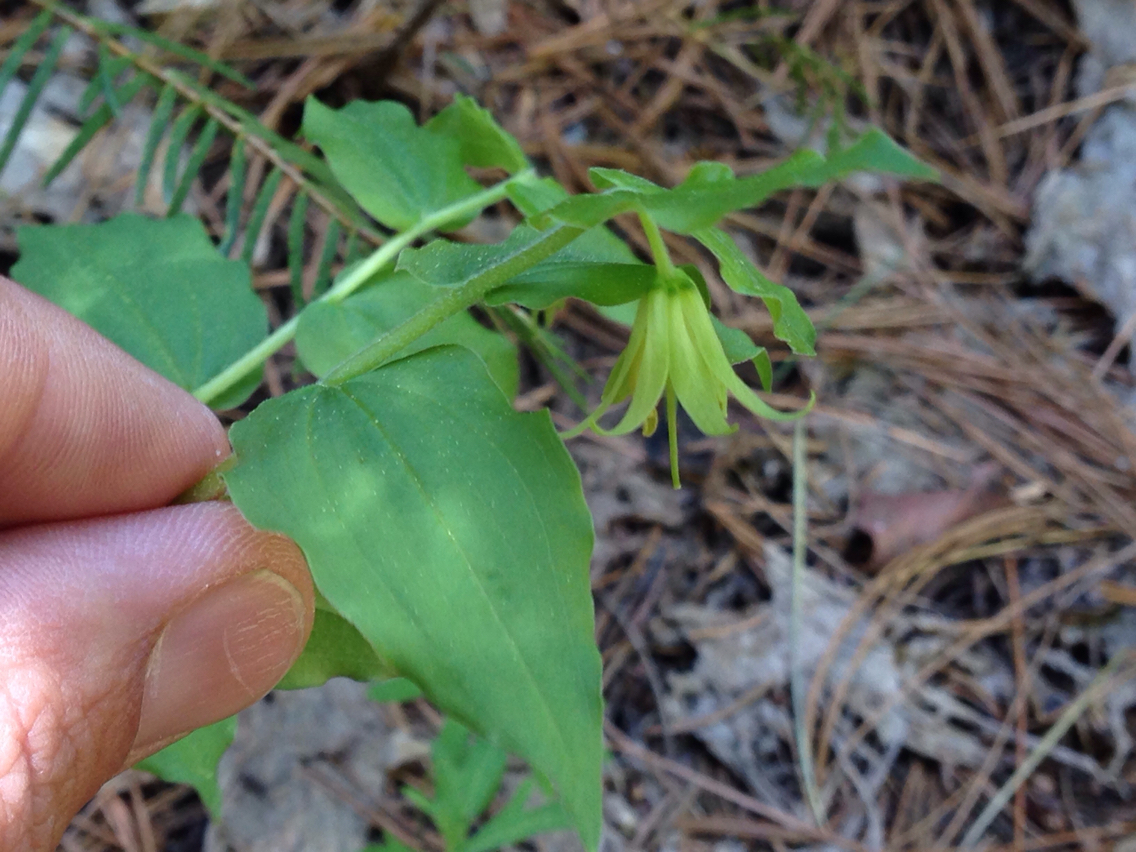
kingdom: Plantae
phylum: Tracheophyta
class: Liliopsida
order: Liliales
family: Liliaceae
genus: Prosartes
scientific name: Prosartes hookeri
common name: Fairy-bells
